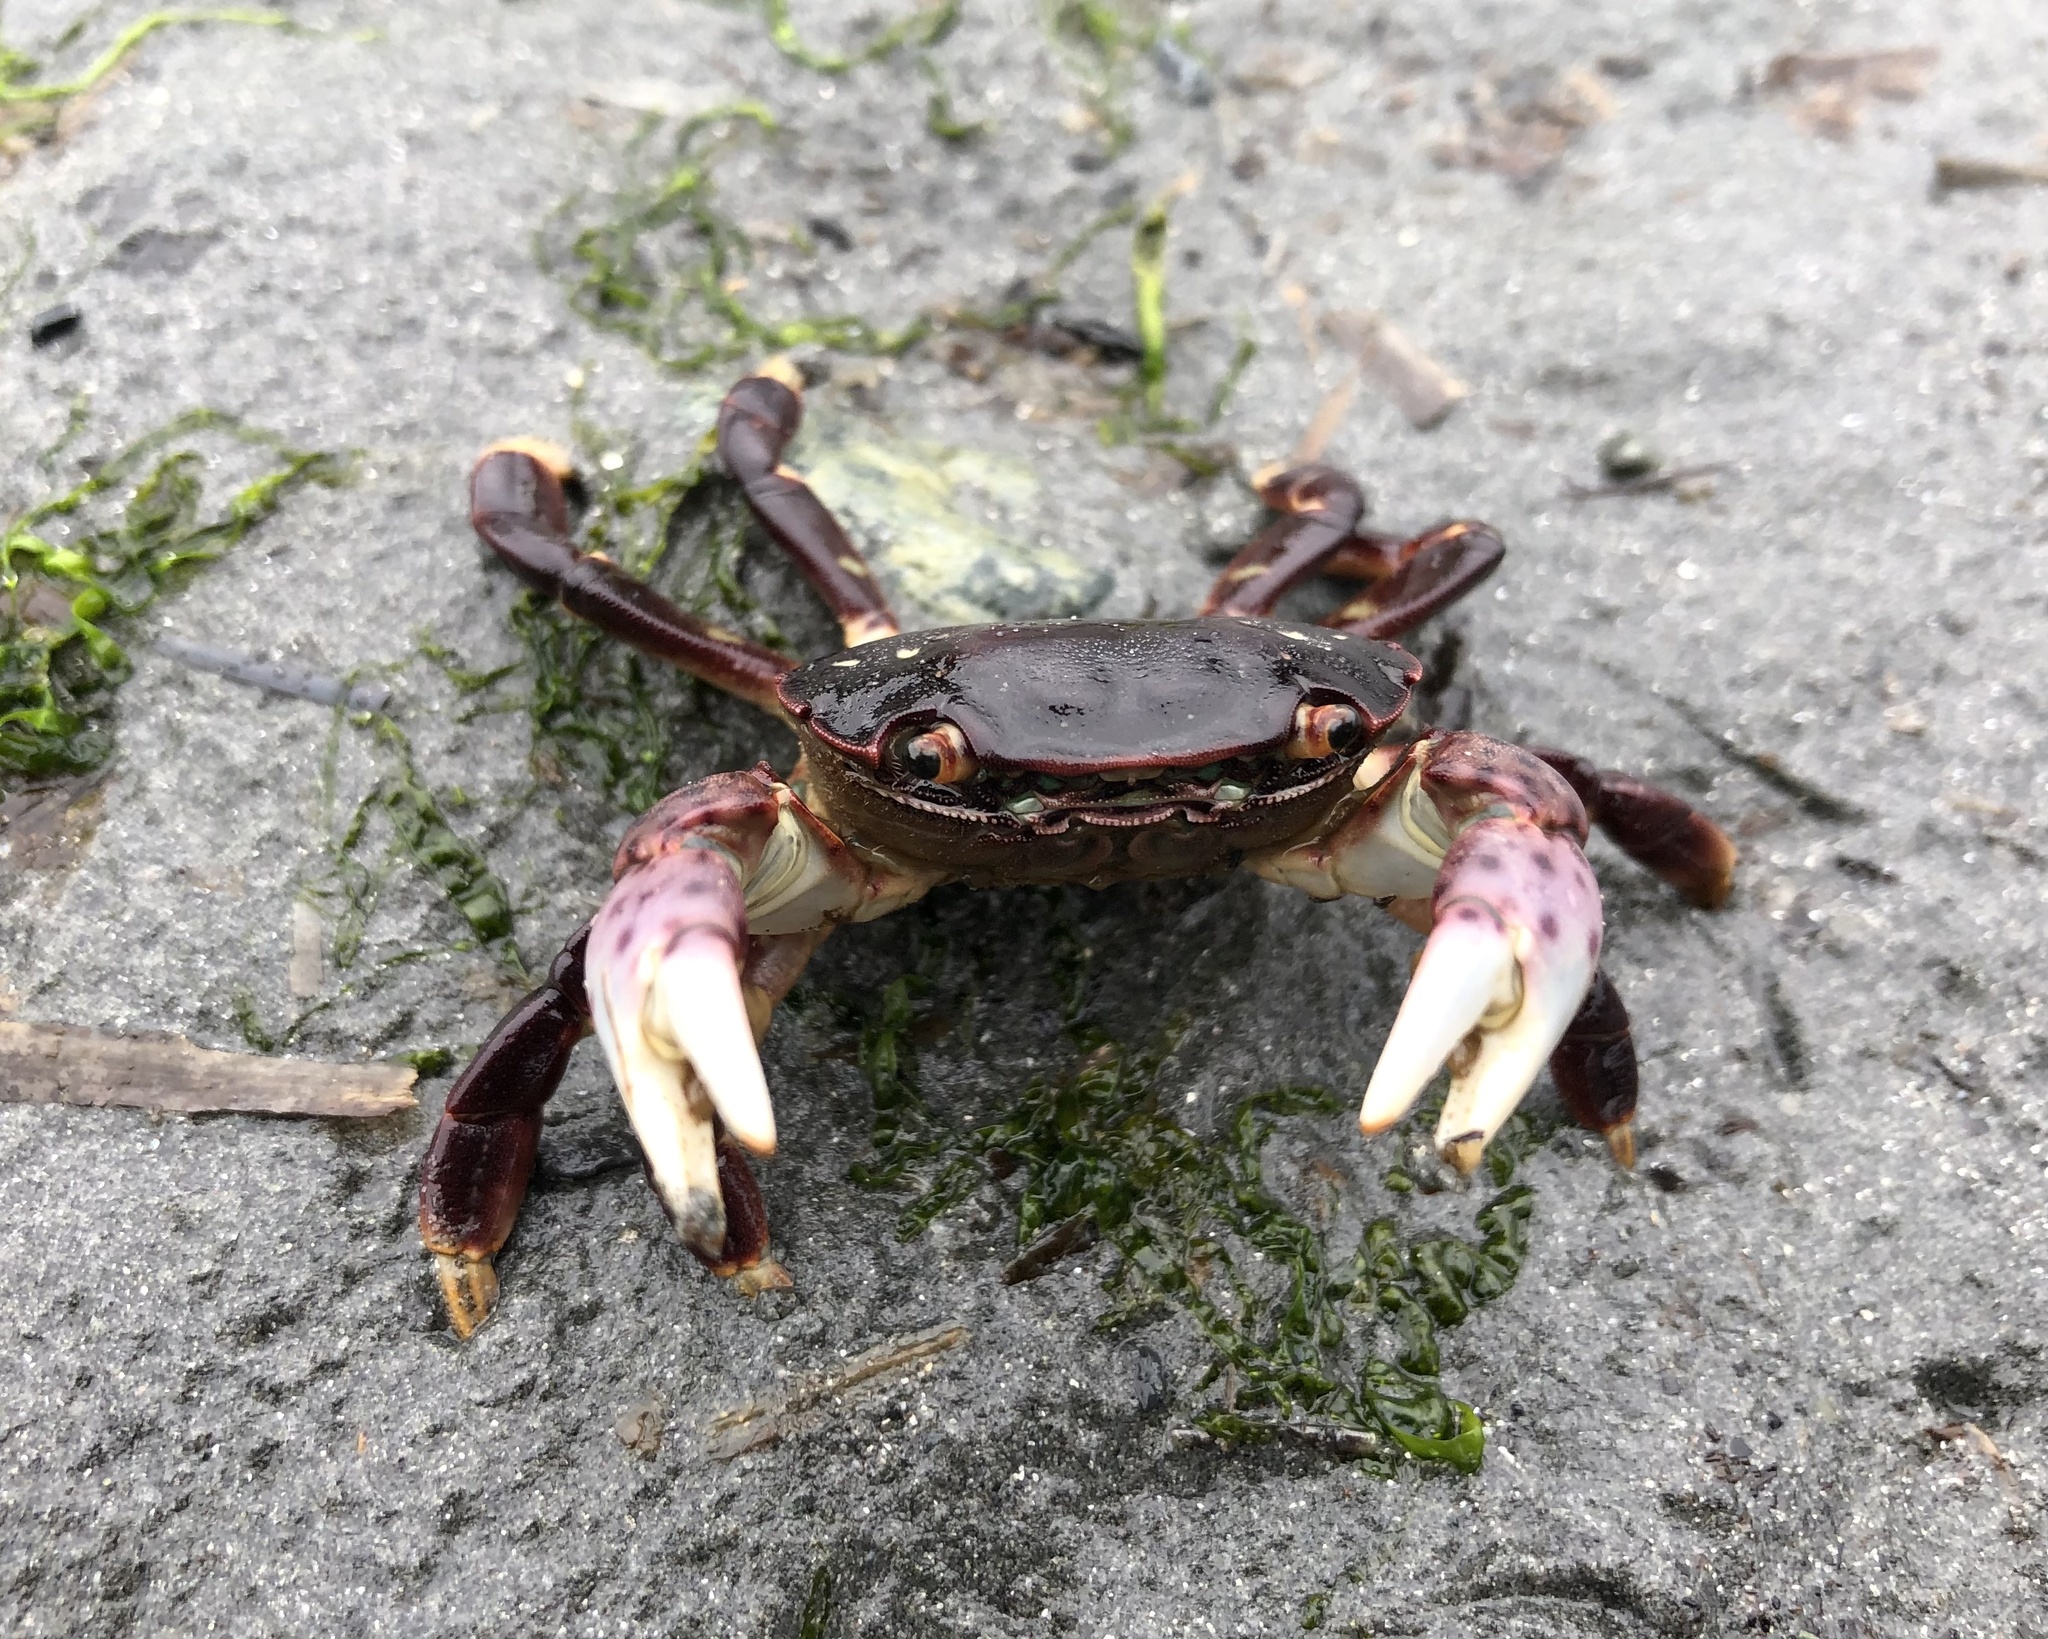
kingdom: Animalia
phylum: Arthropoda
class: Malacostraca
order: Decapoda
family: Varunidae
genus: Hemigrapsus
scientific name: Hemigrapsus nudus
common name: Purple shore crab
